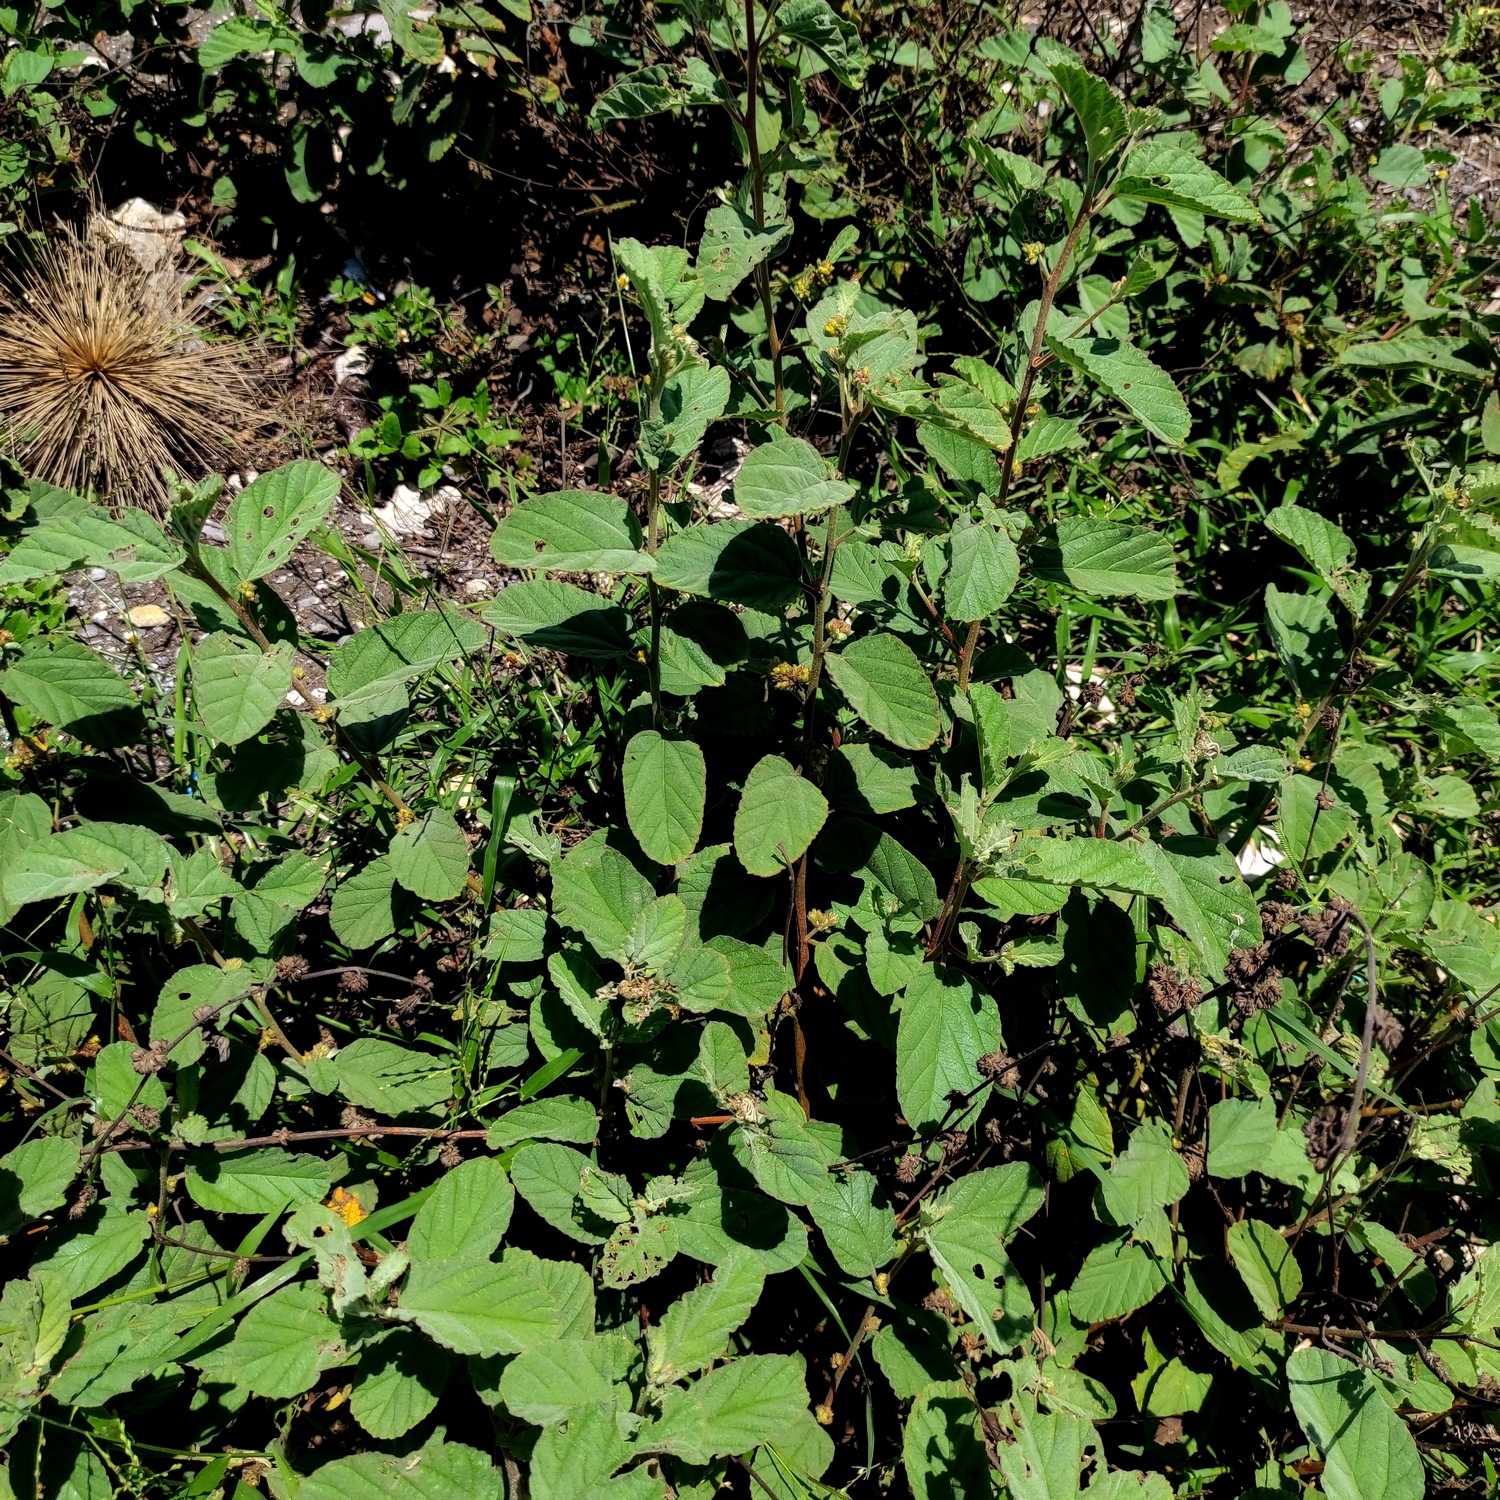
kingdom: Plantae
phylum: Tracheophyta
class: Magnoliopsida
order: Malvales
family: Malvaceae
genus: Waltheria
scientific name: Waltheria indica
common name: Leather-coat
